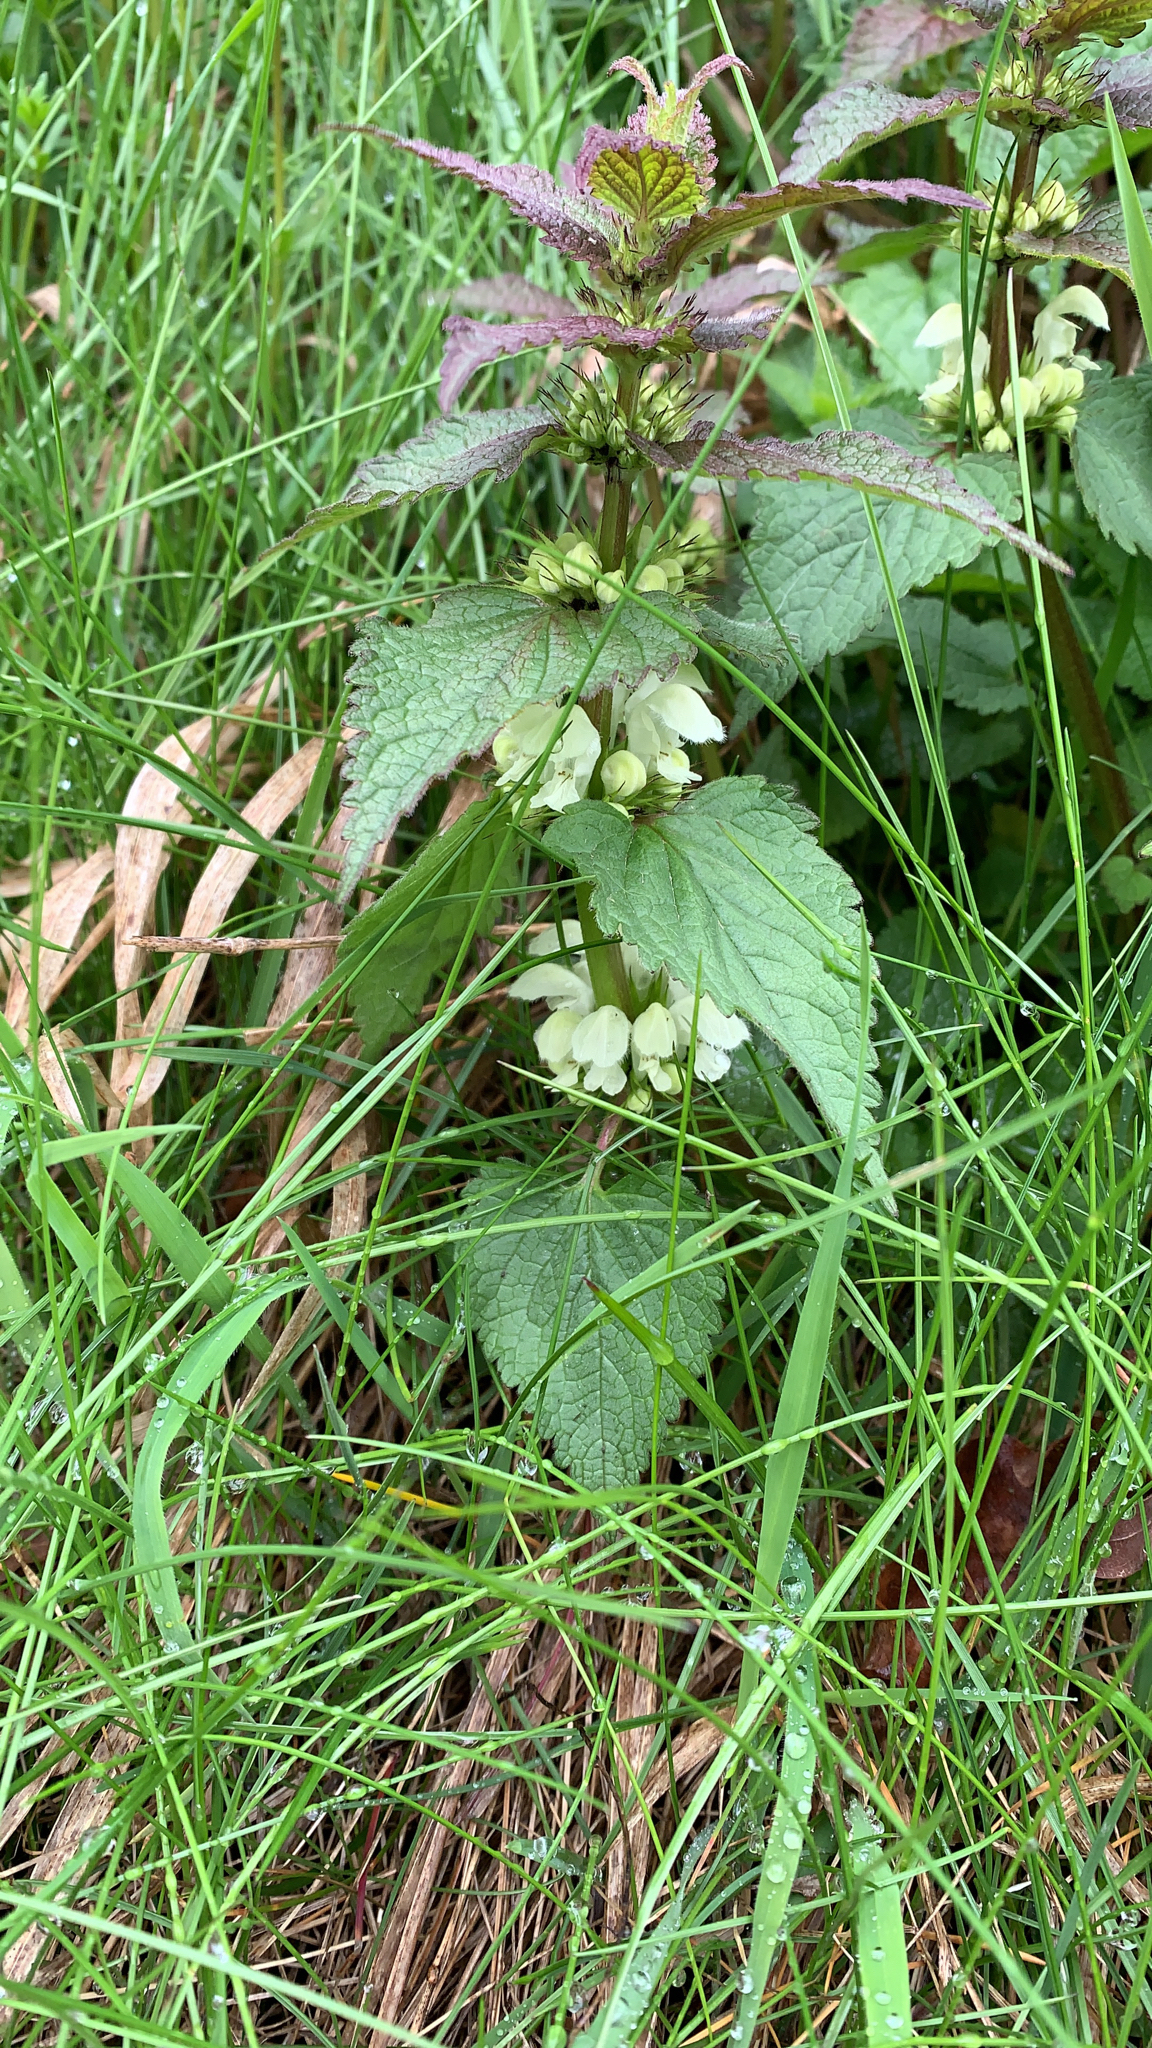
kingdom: Plantae
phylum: Tracheophyta
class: Magnoliopsida
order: Lamiales
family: Lamiaceae
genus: Lamium
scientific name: Lamium album
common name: White dead-nettle
